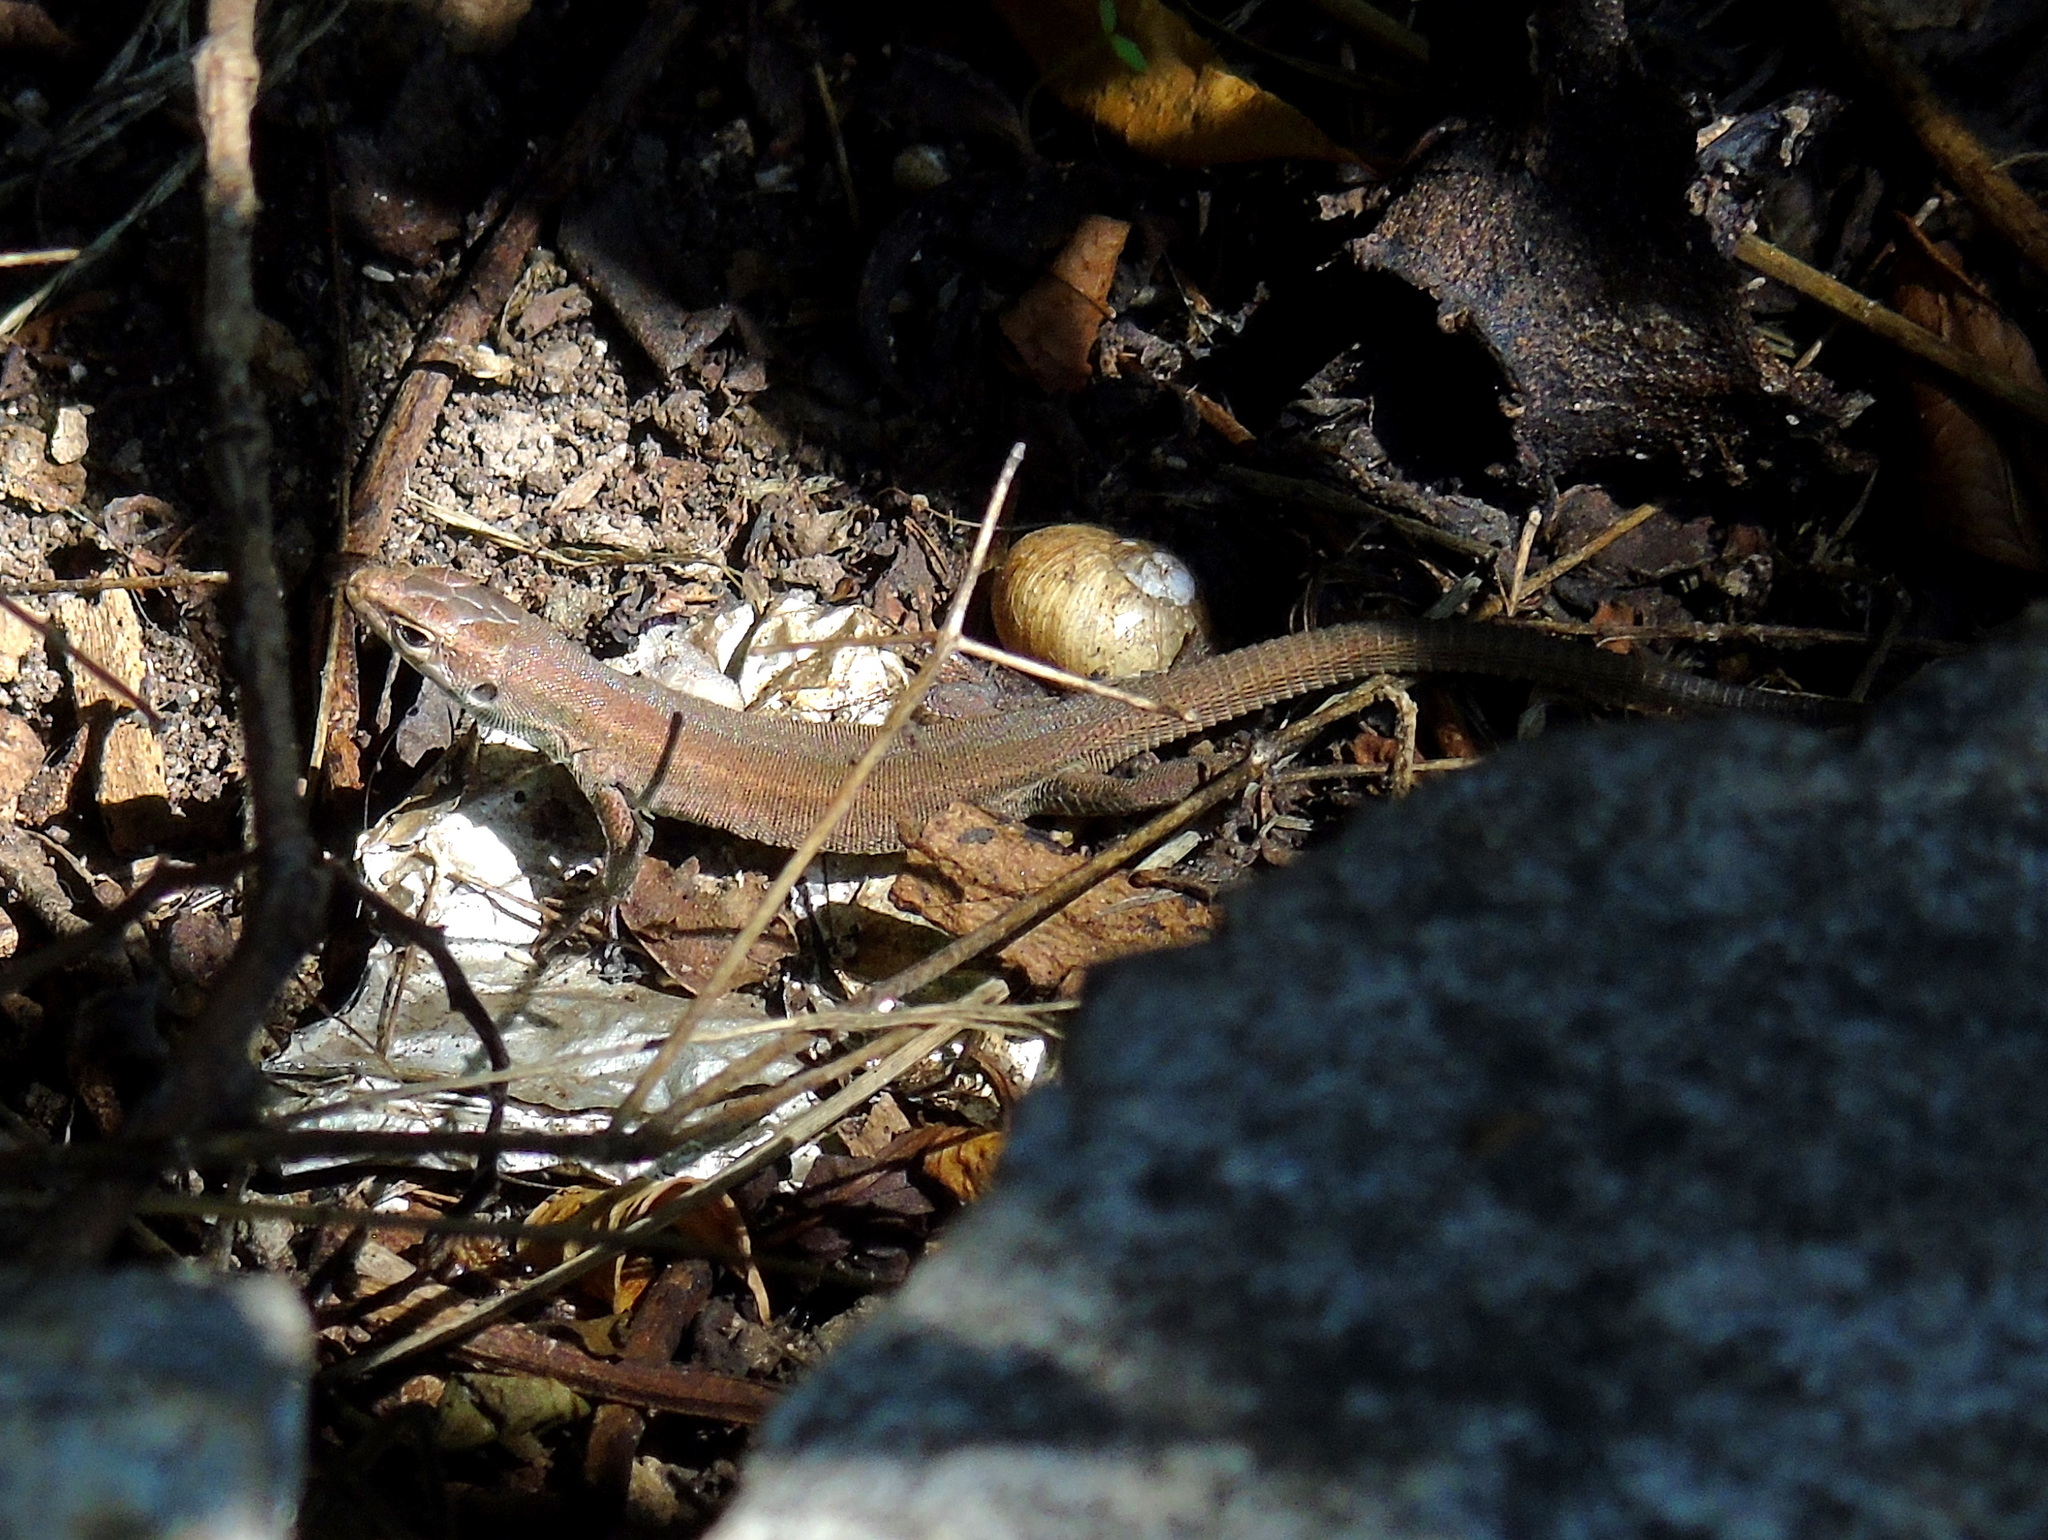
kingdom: Animalia
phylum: Chordata
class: Squamata
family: Lacertidae
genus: Podarcis
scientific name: Podarcis melisellensis
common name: Dalmatian wall lizard
